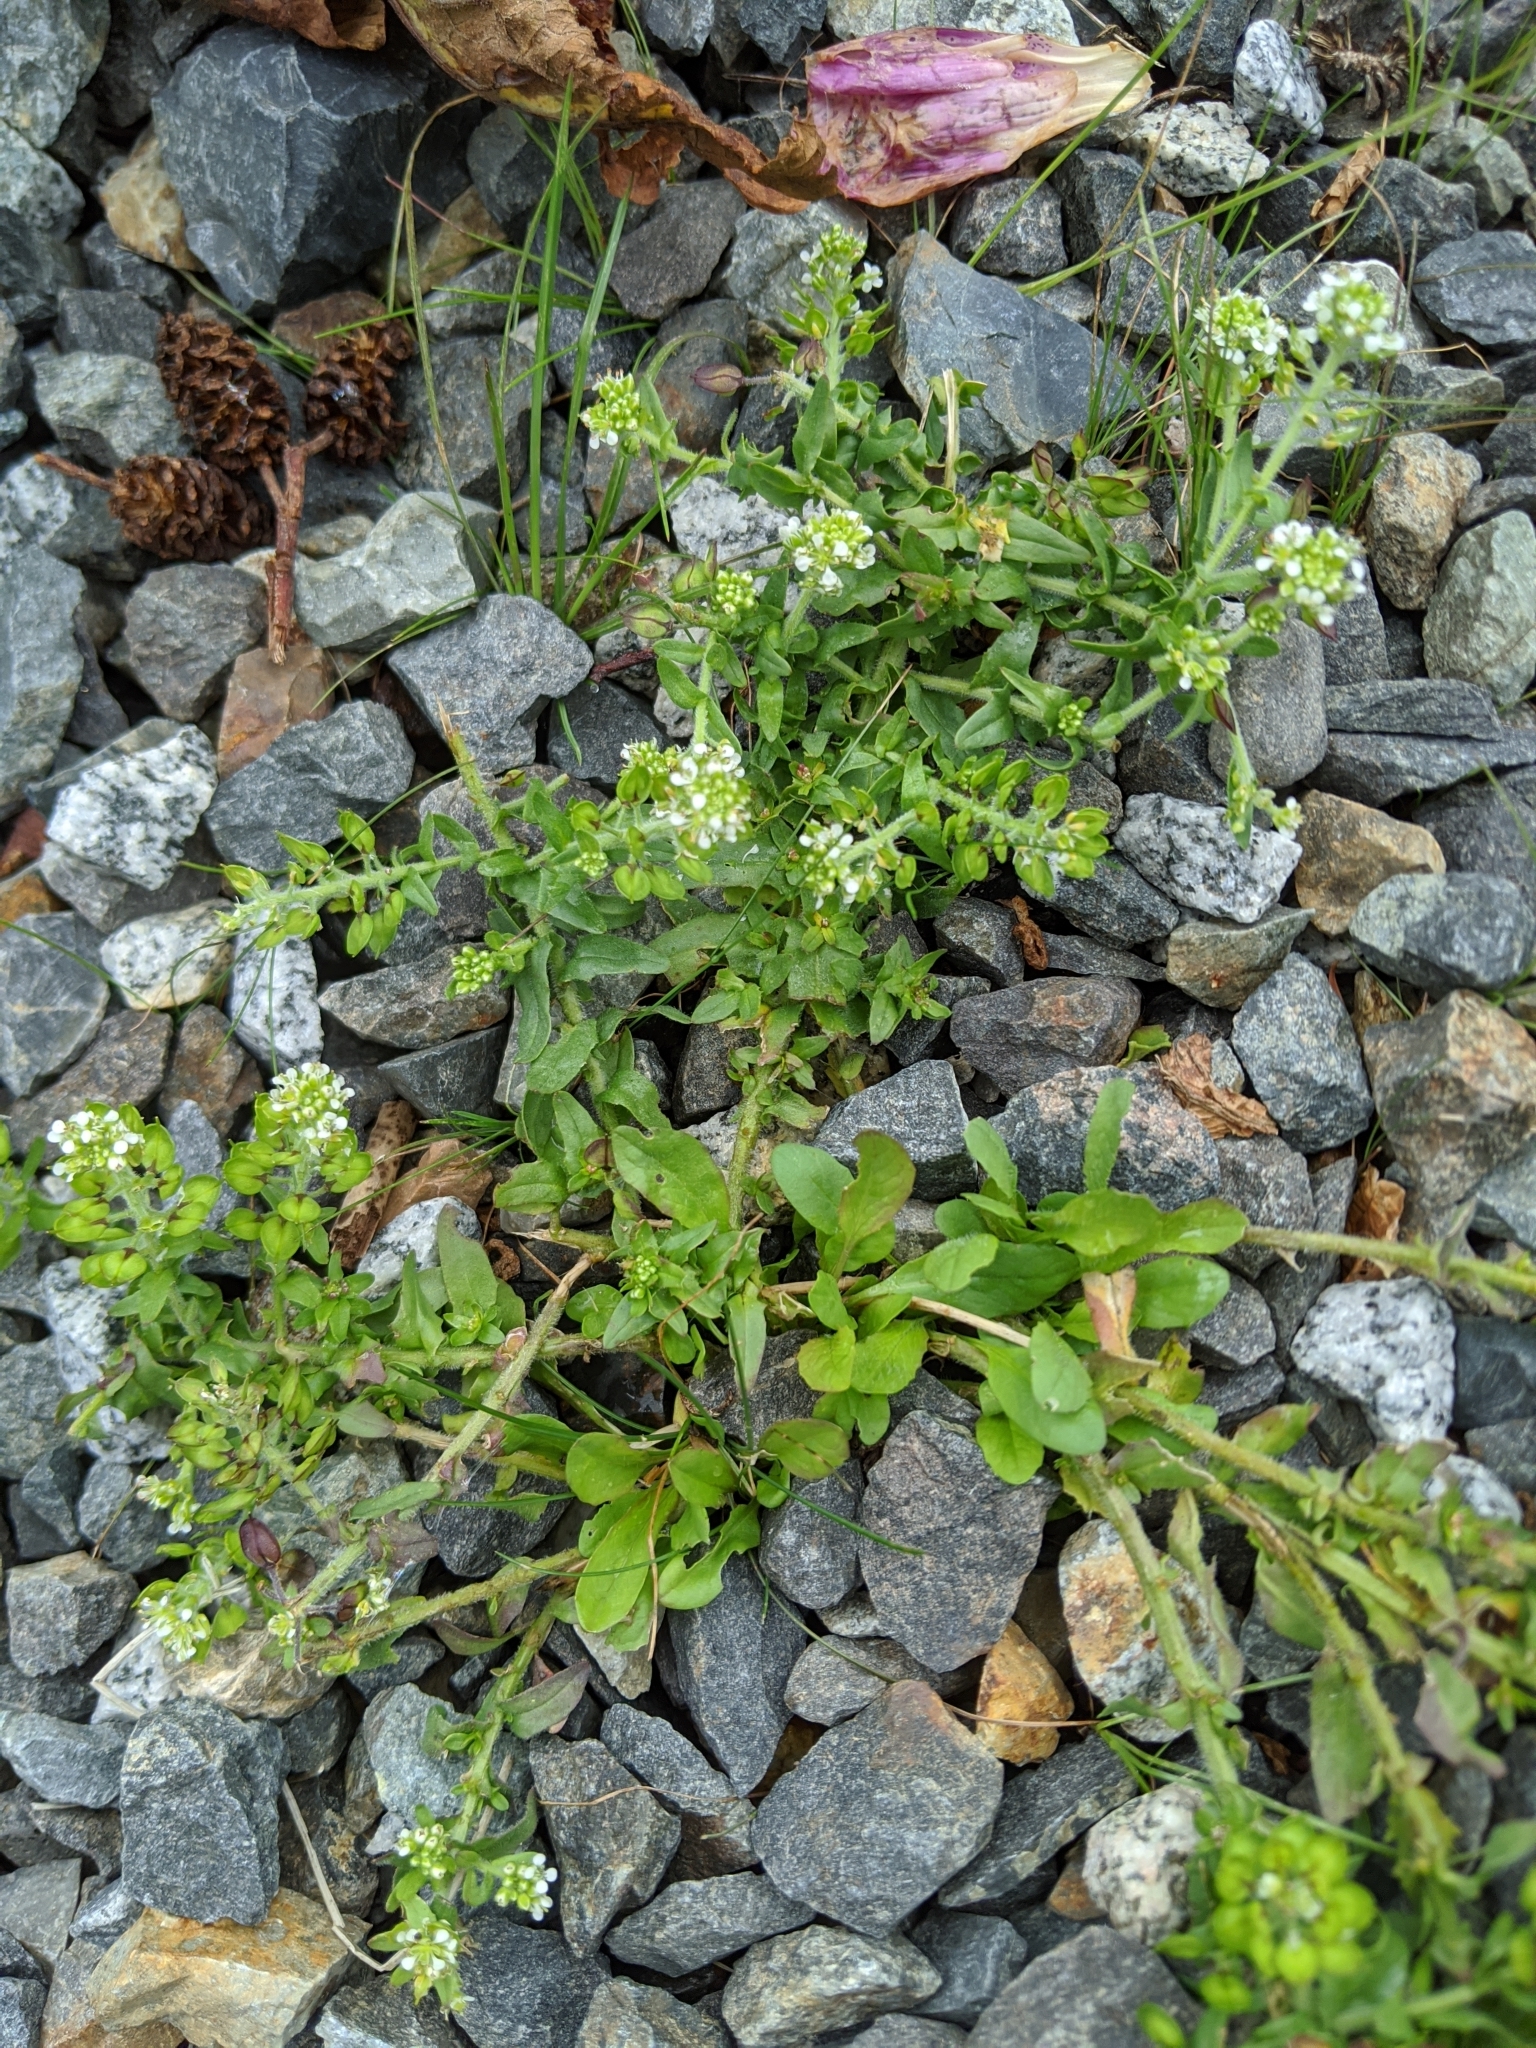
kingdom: Plantae
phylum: Tracheophyta
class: Magnoliopsida
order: Brassicales
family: Brassicaceae
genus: Lepidium
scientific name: Lepidium campestre
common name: Field pepperwort
